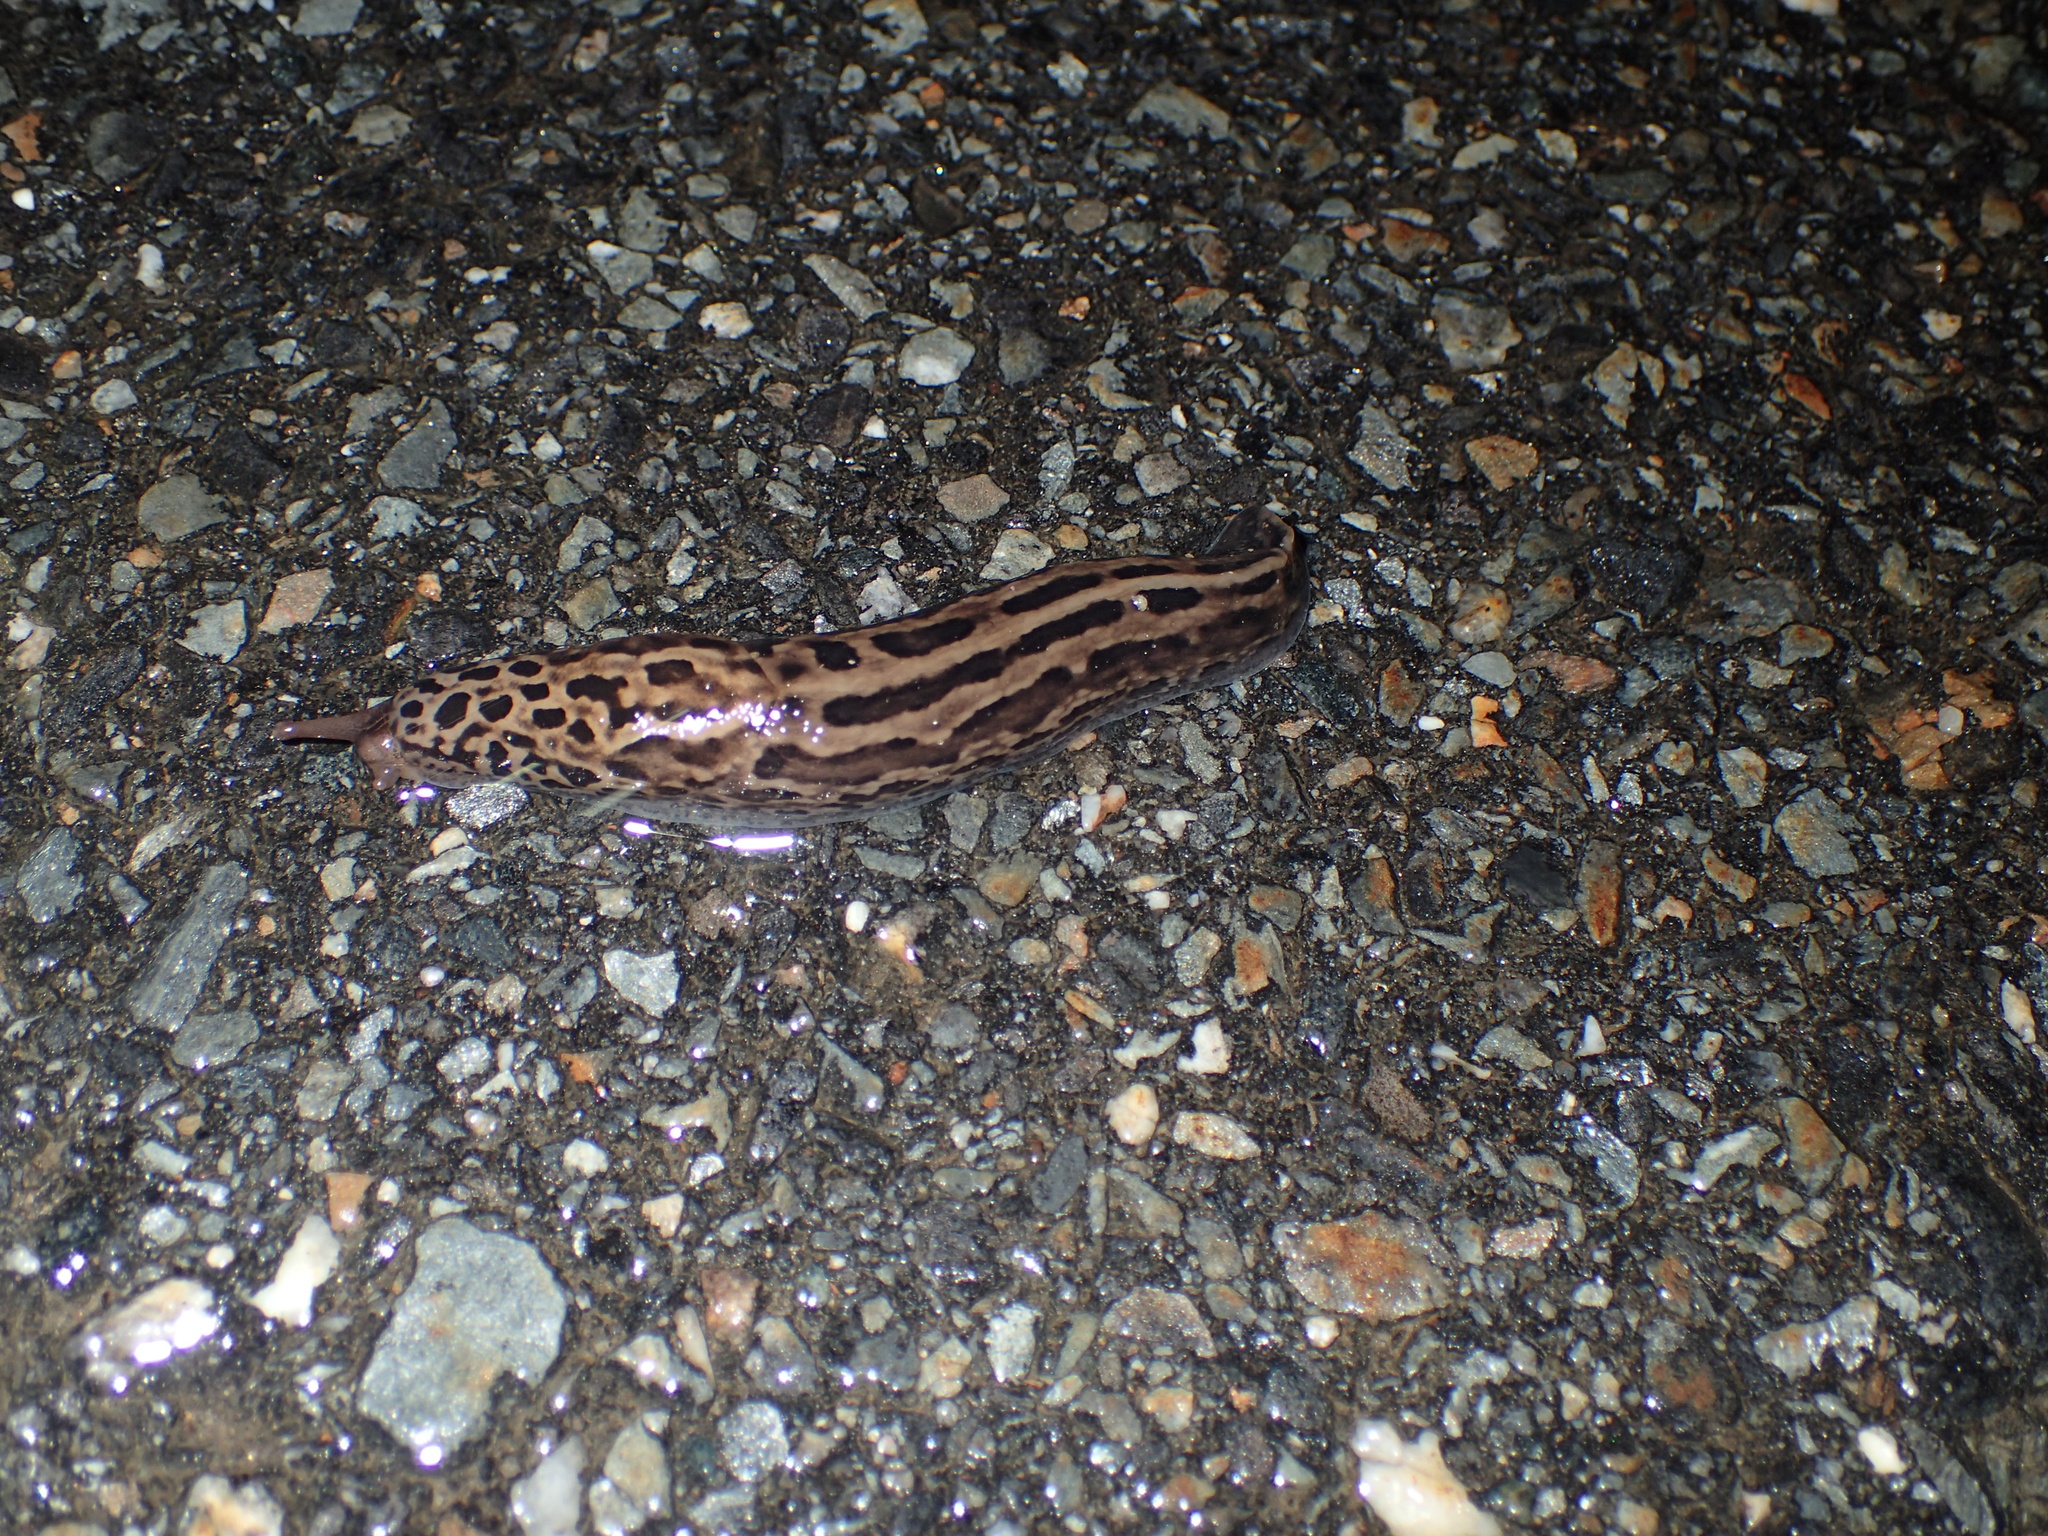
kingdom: Animalia
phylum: Mollusca
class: Gastropoda
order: Stylommatophora
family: Limacidae
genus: Limax
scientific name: Limax maximus
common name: Great grey slug
